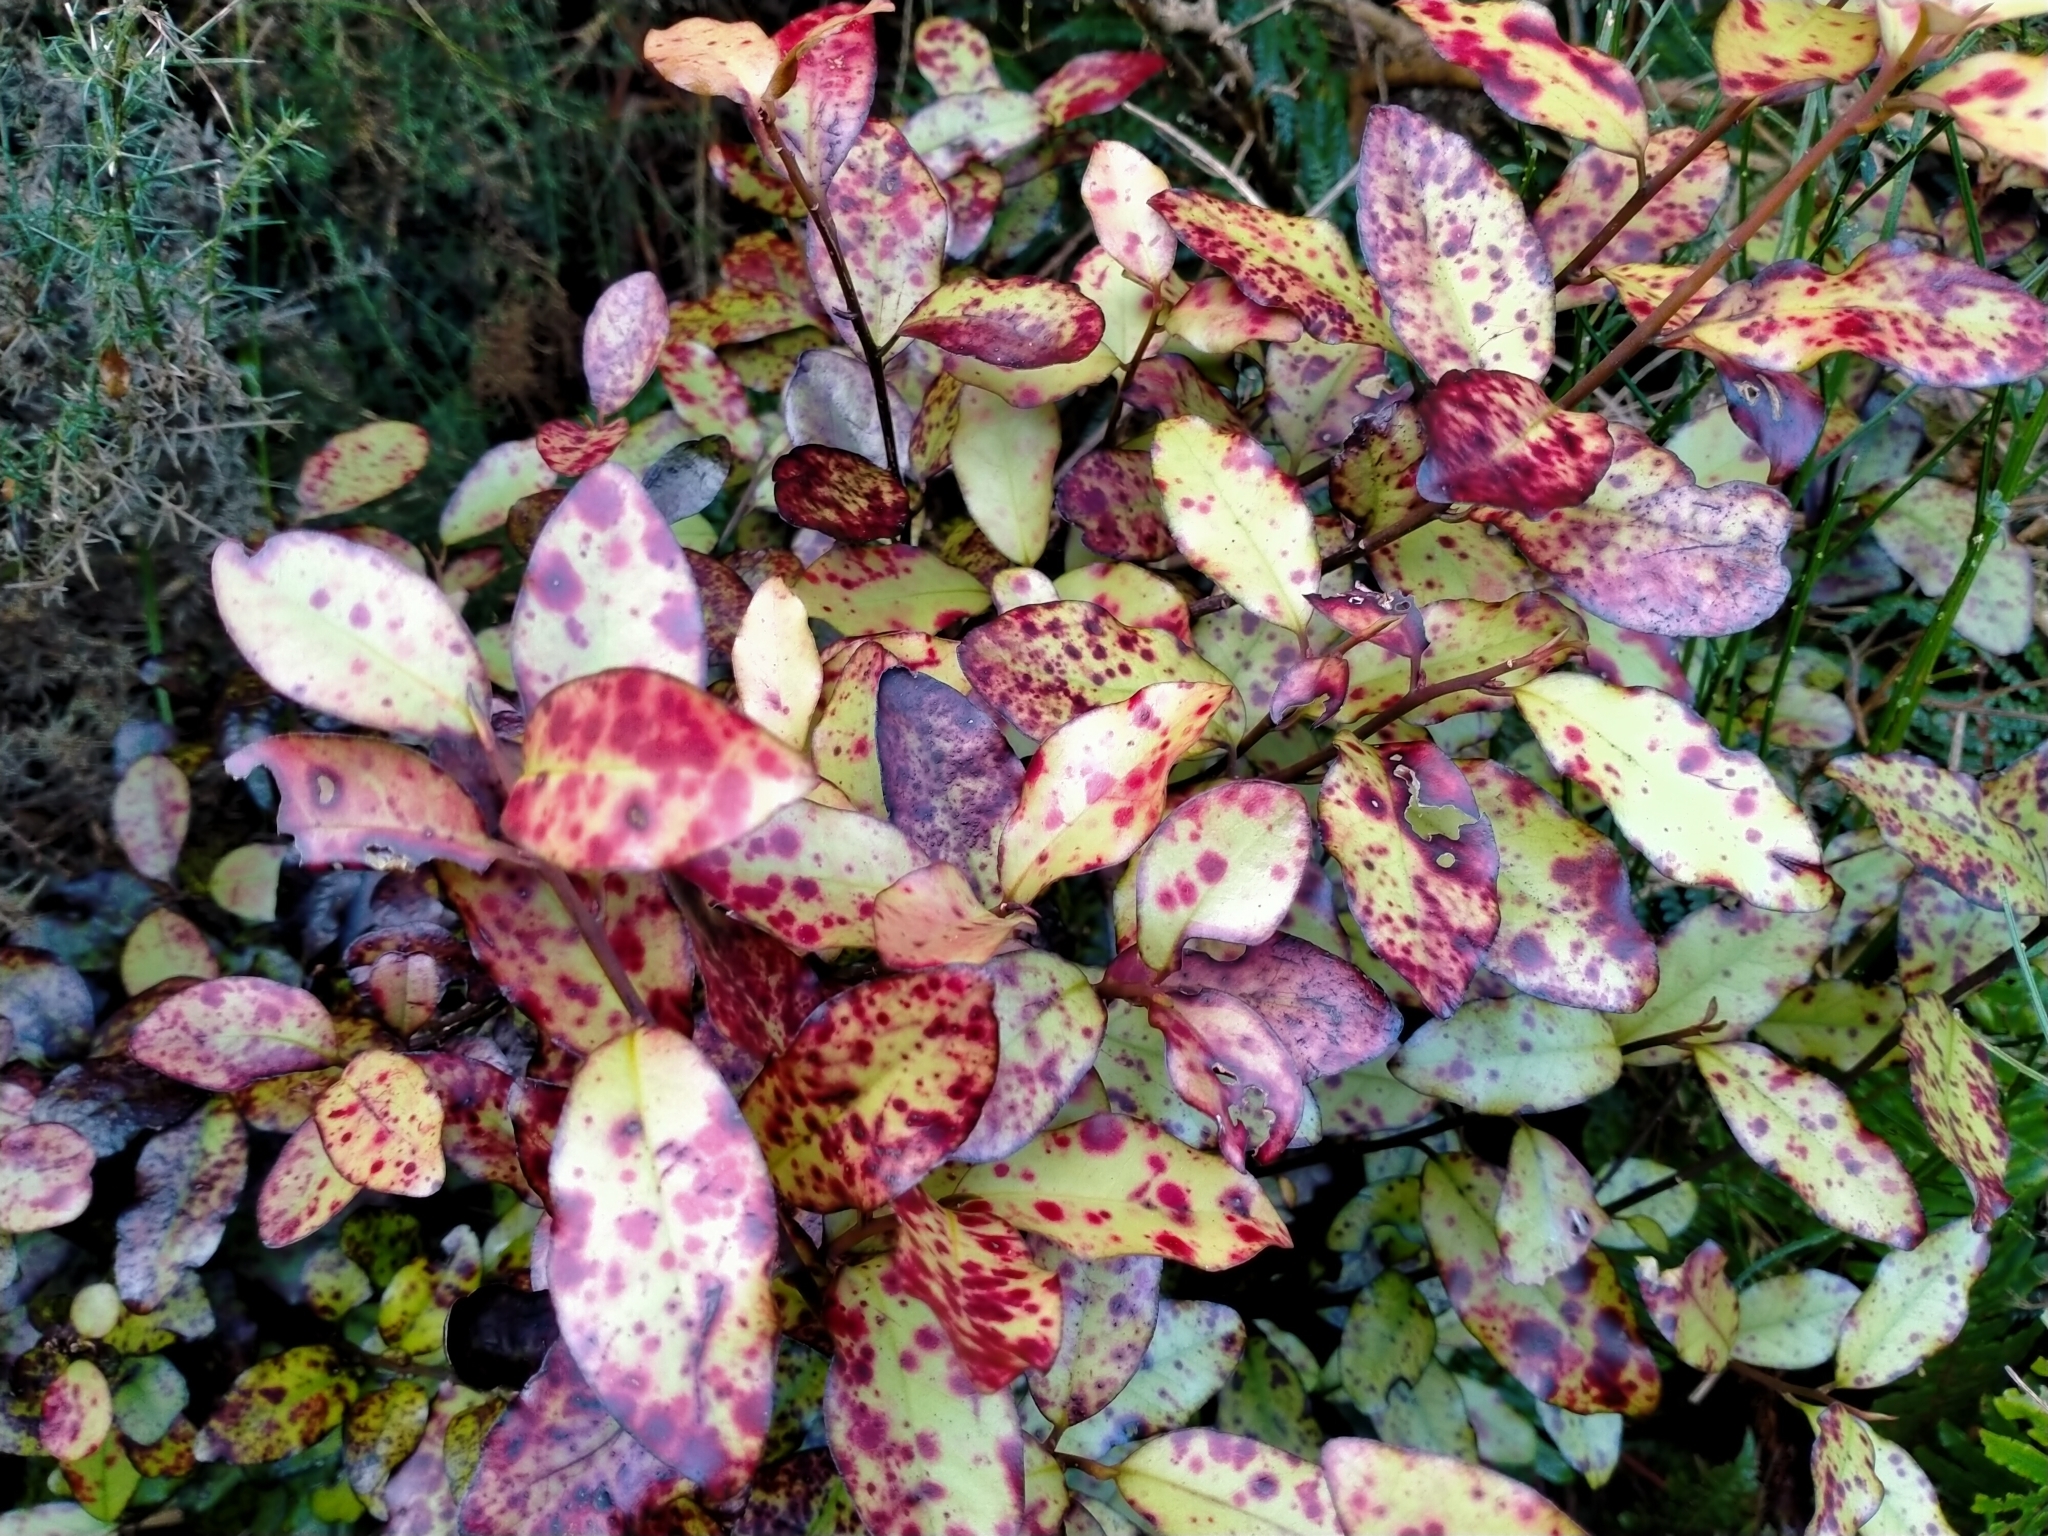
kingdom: Plantae
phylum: Tracheophyta
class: Magnoliopsida
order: Canellales
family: Winteraceae
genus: Pseudowintera
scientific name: Pseudowintera colorata
